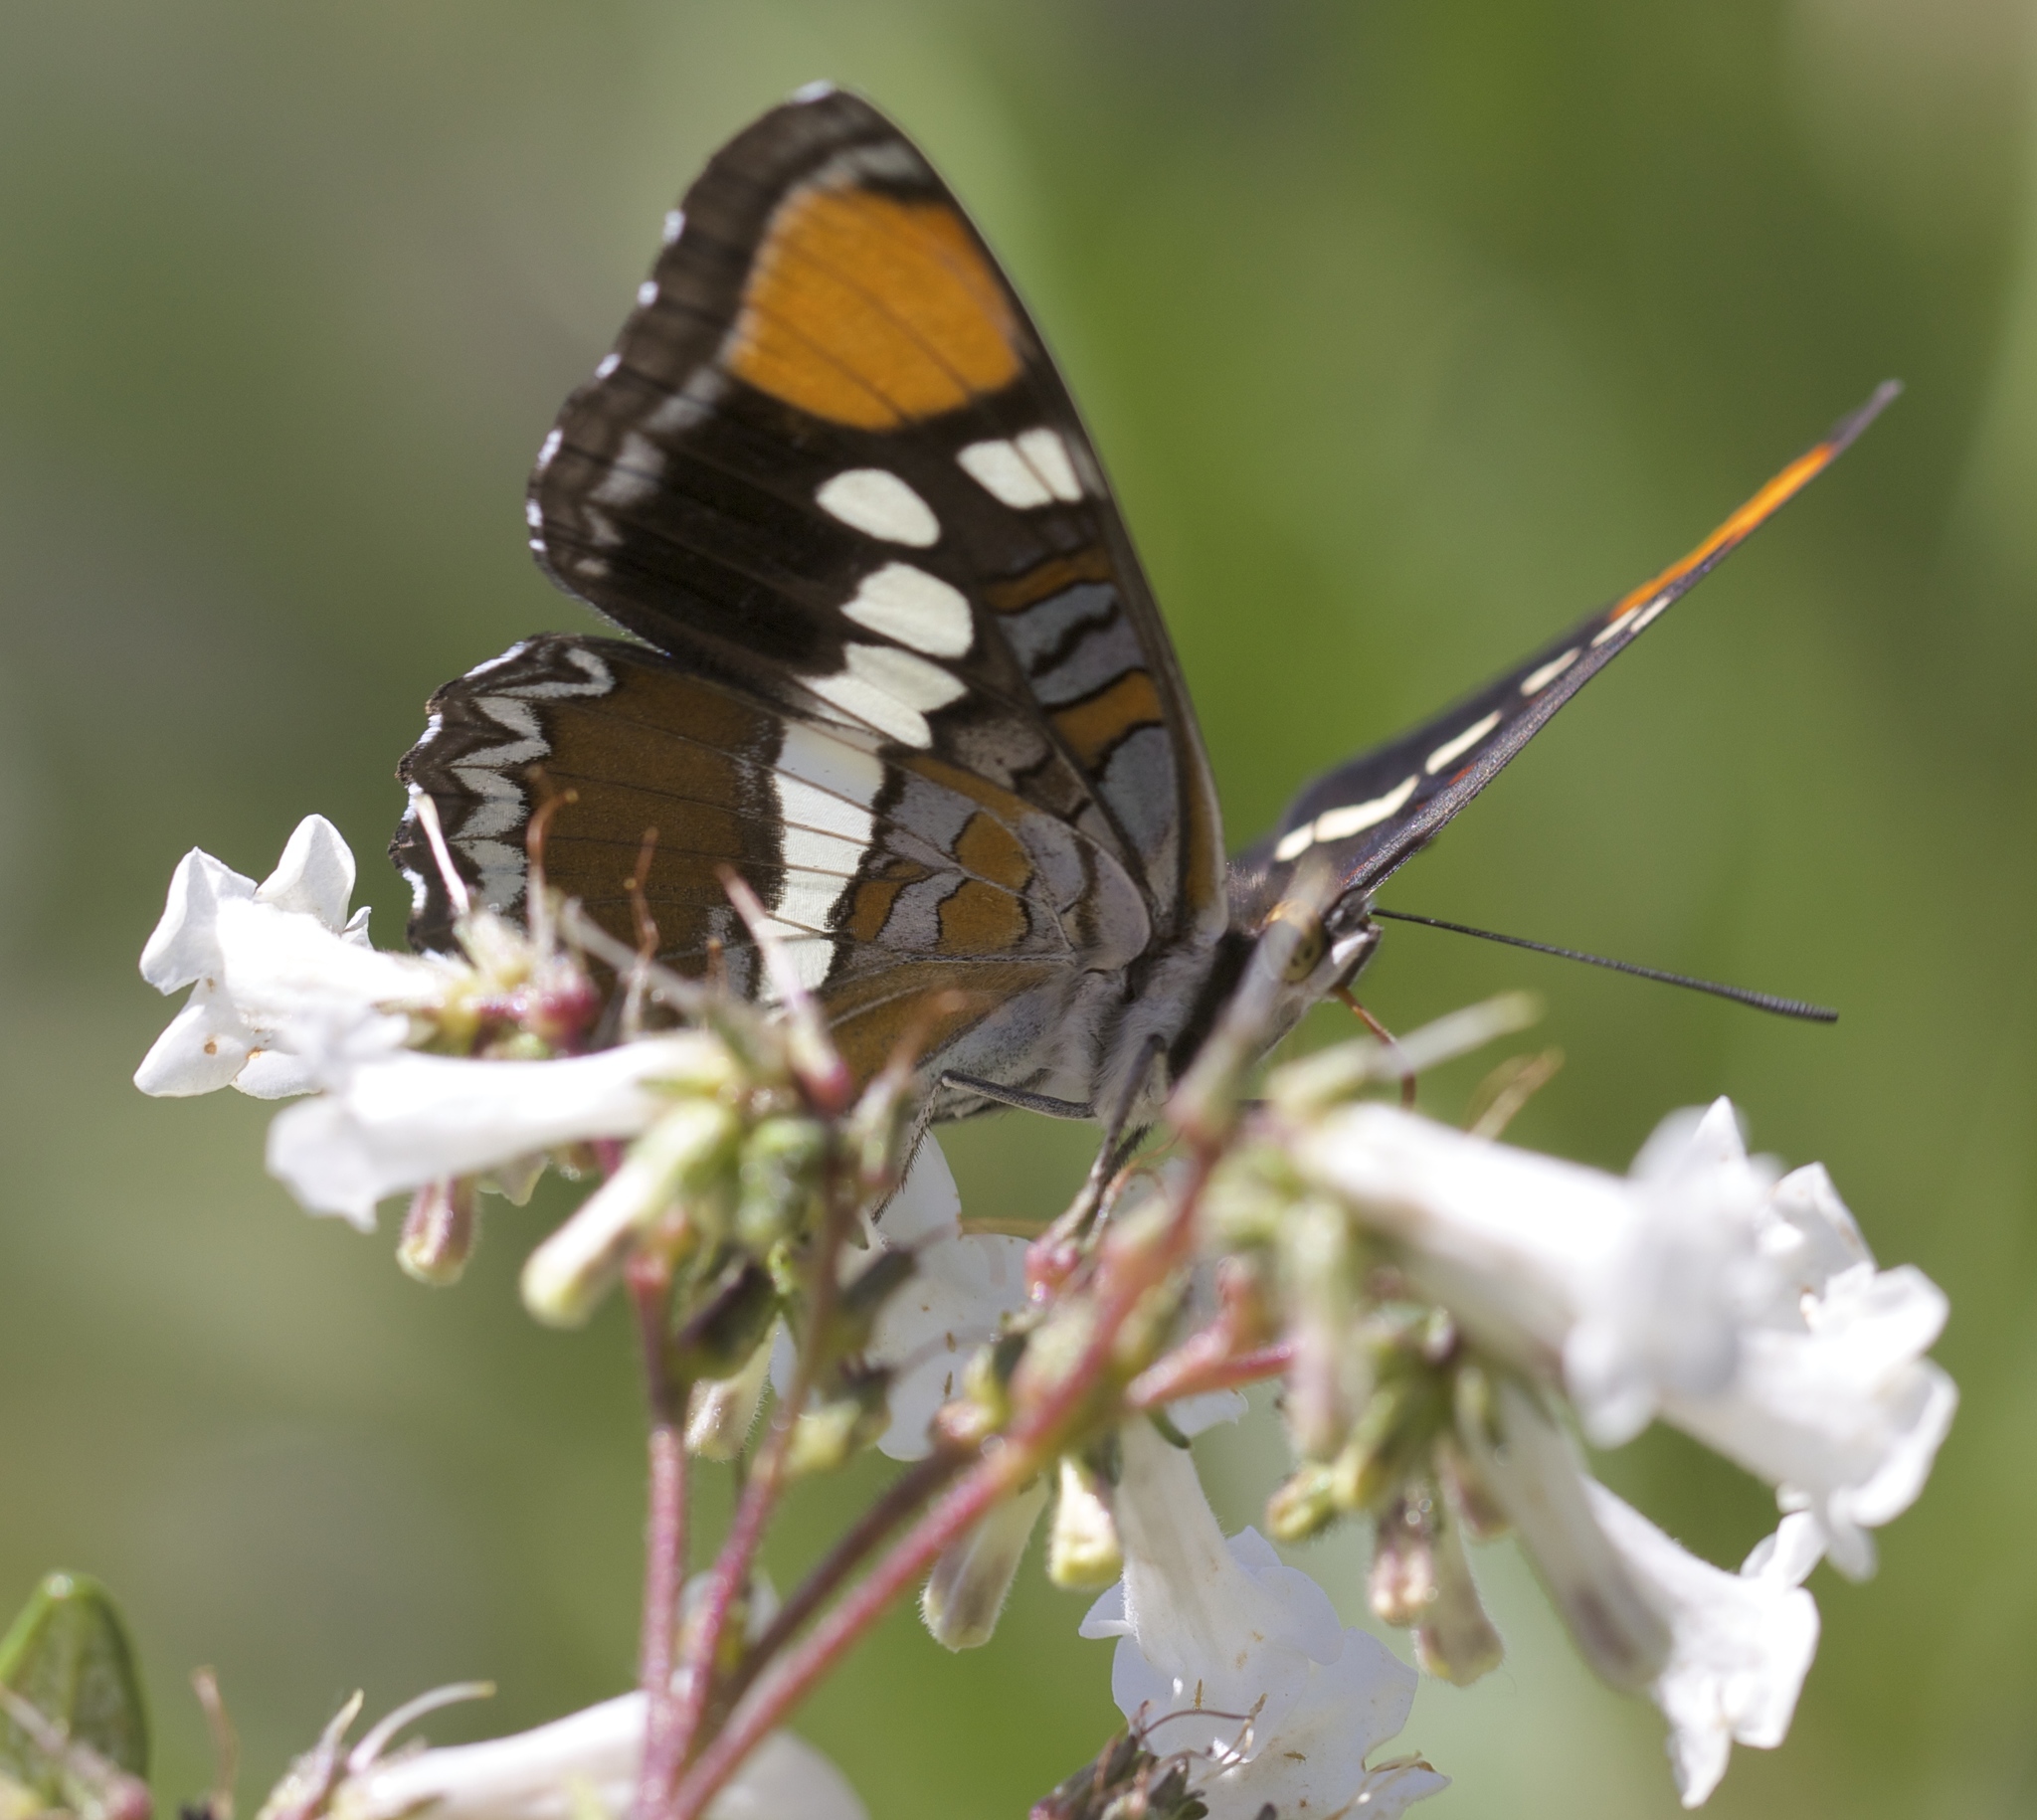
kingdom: Animalia
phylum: Arthropoda
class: Insecta
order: Lepidoptera
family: Nymphalidae
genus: Limenitis
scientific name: Limenitis bredowii
